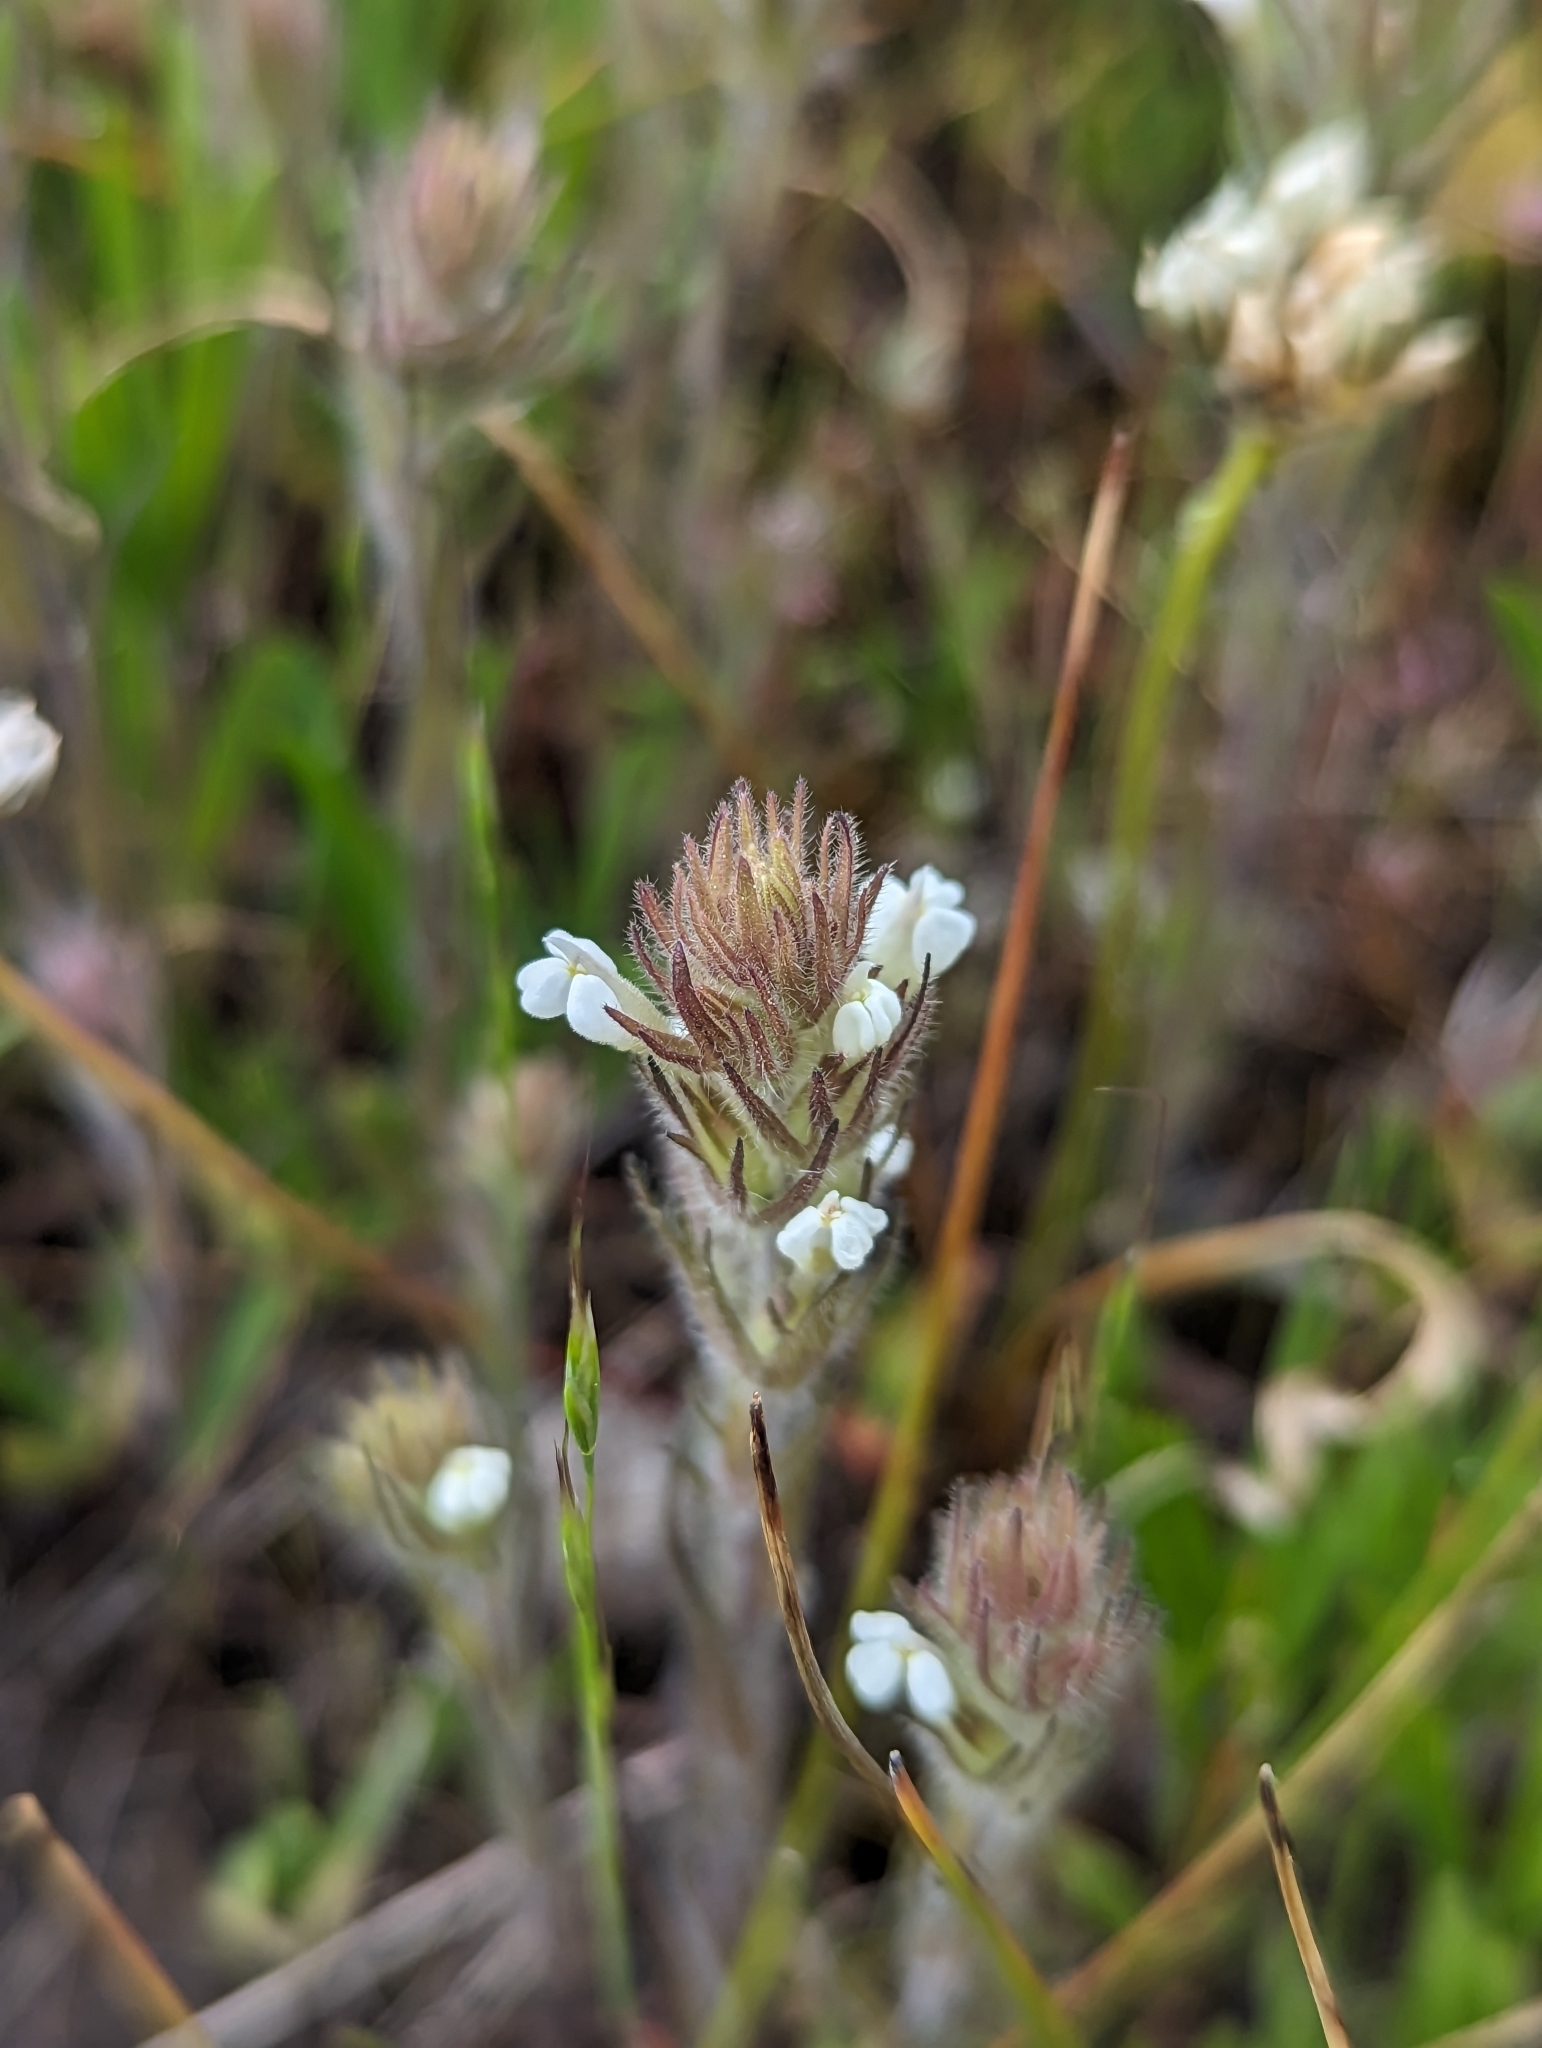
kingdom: Plantae
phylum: Tracheophyta
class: Magnoliopsida
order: Lamiales
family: Orobanchaceae
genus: Castilleja
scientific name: Castilleja tenuis
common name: Hairy indian paintbrush
